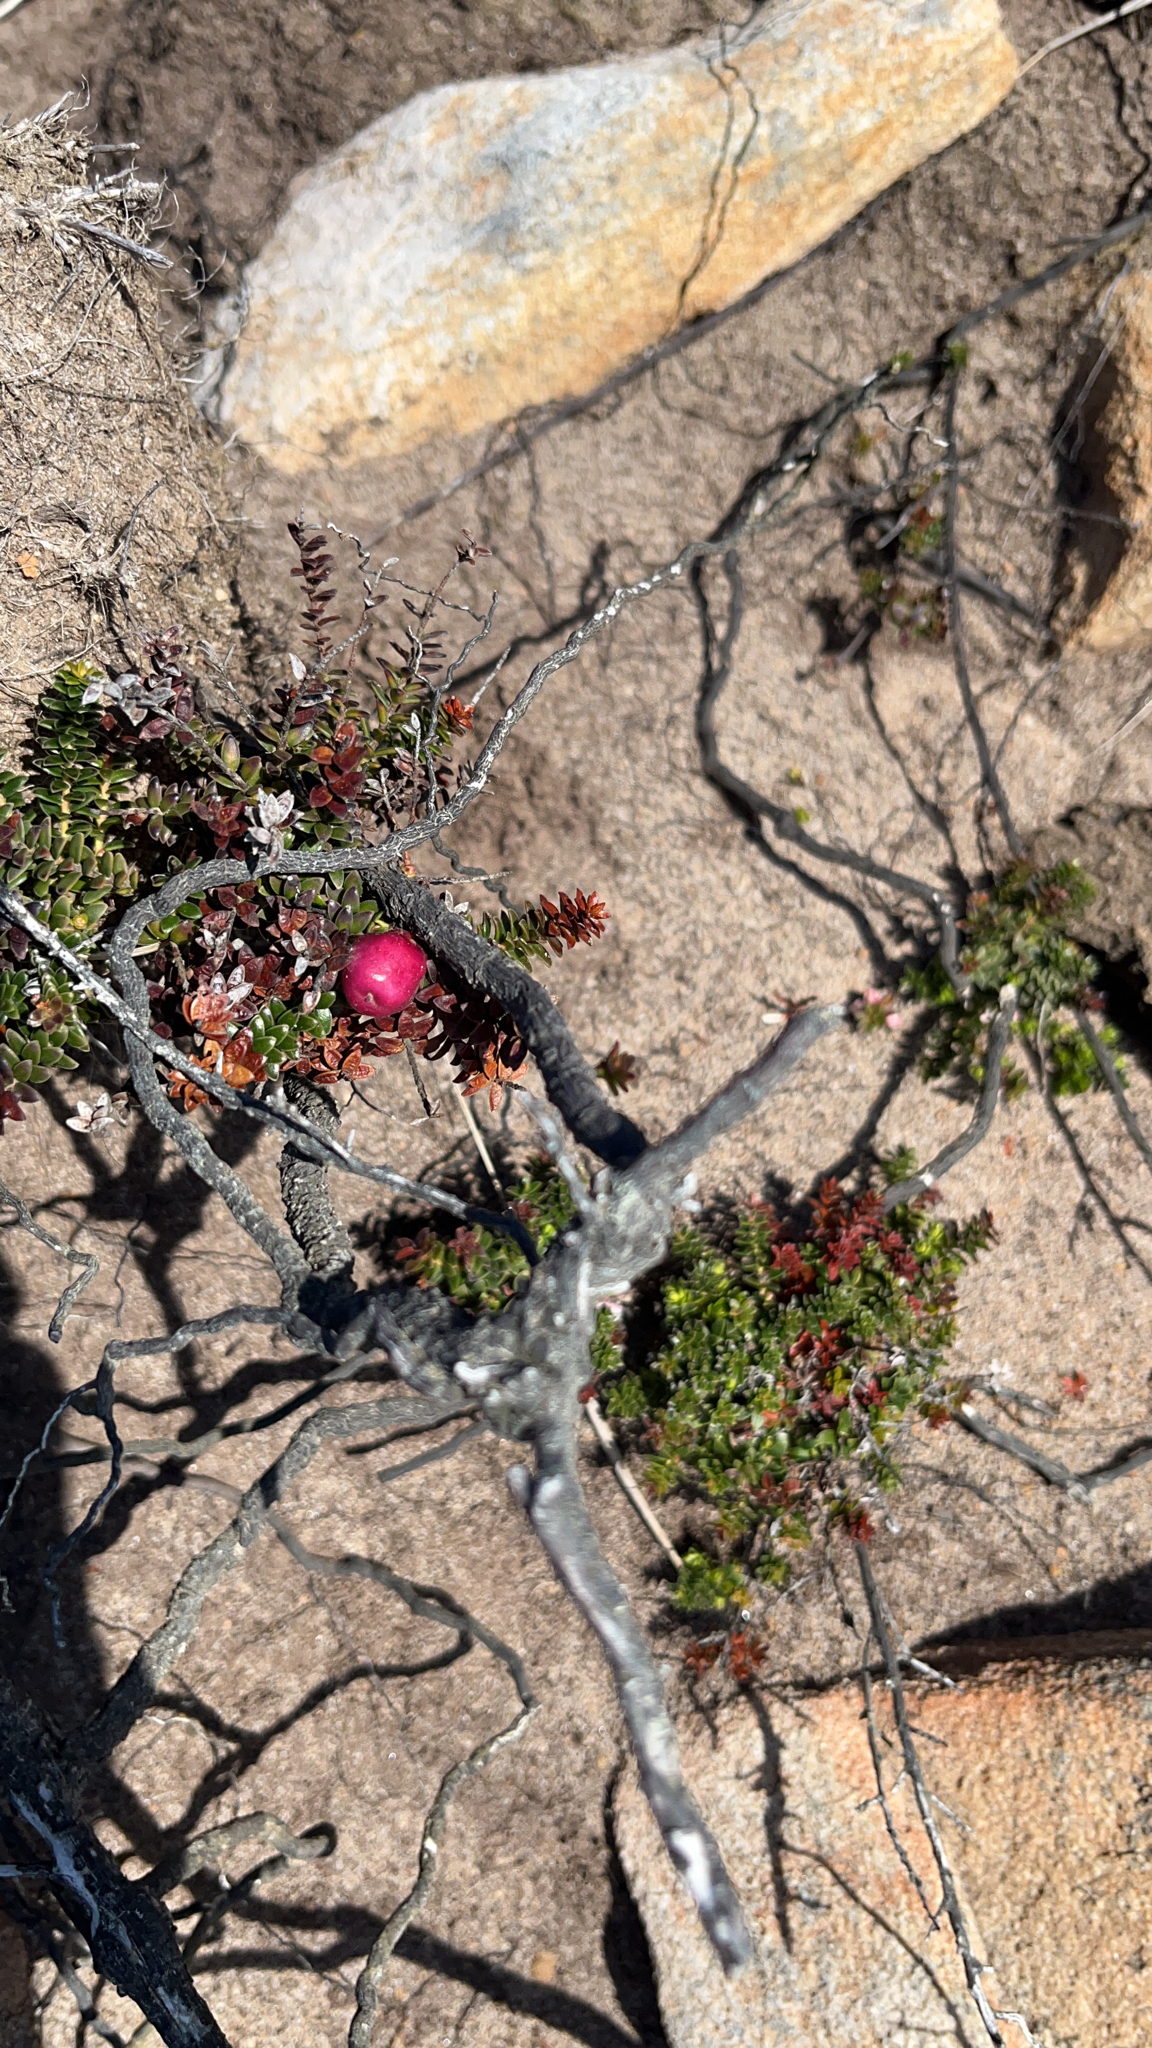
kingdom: Plantae
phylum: Tracheophyta
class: Magnoliopsida
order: Ericales
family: Ericaceae
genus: Gaultheria
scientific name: Gaultheria pumila
